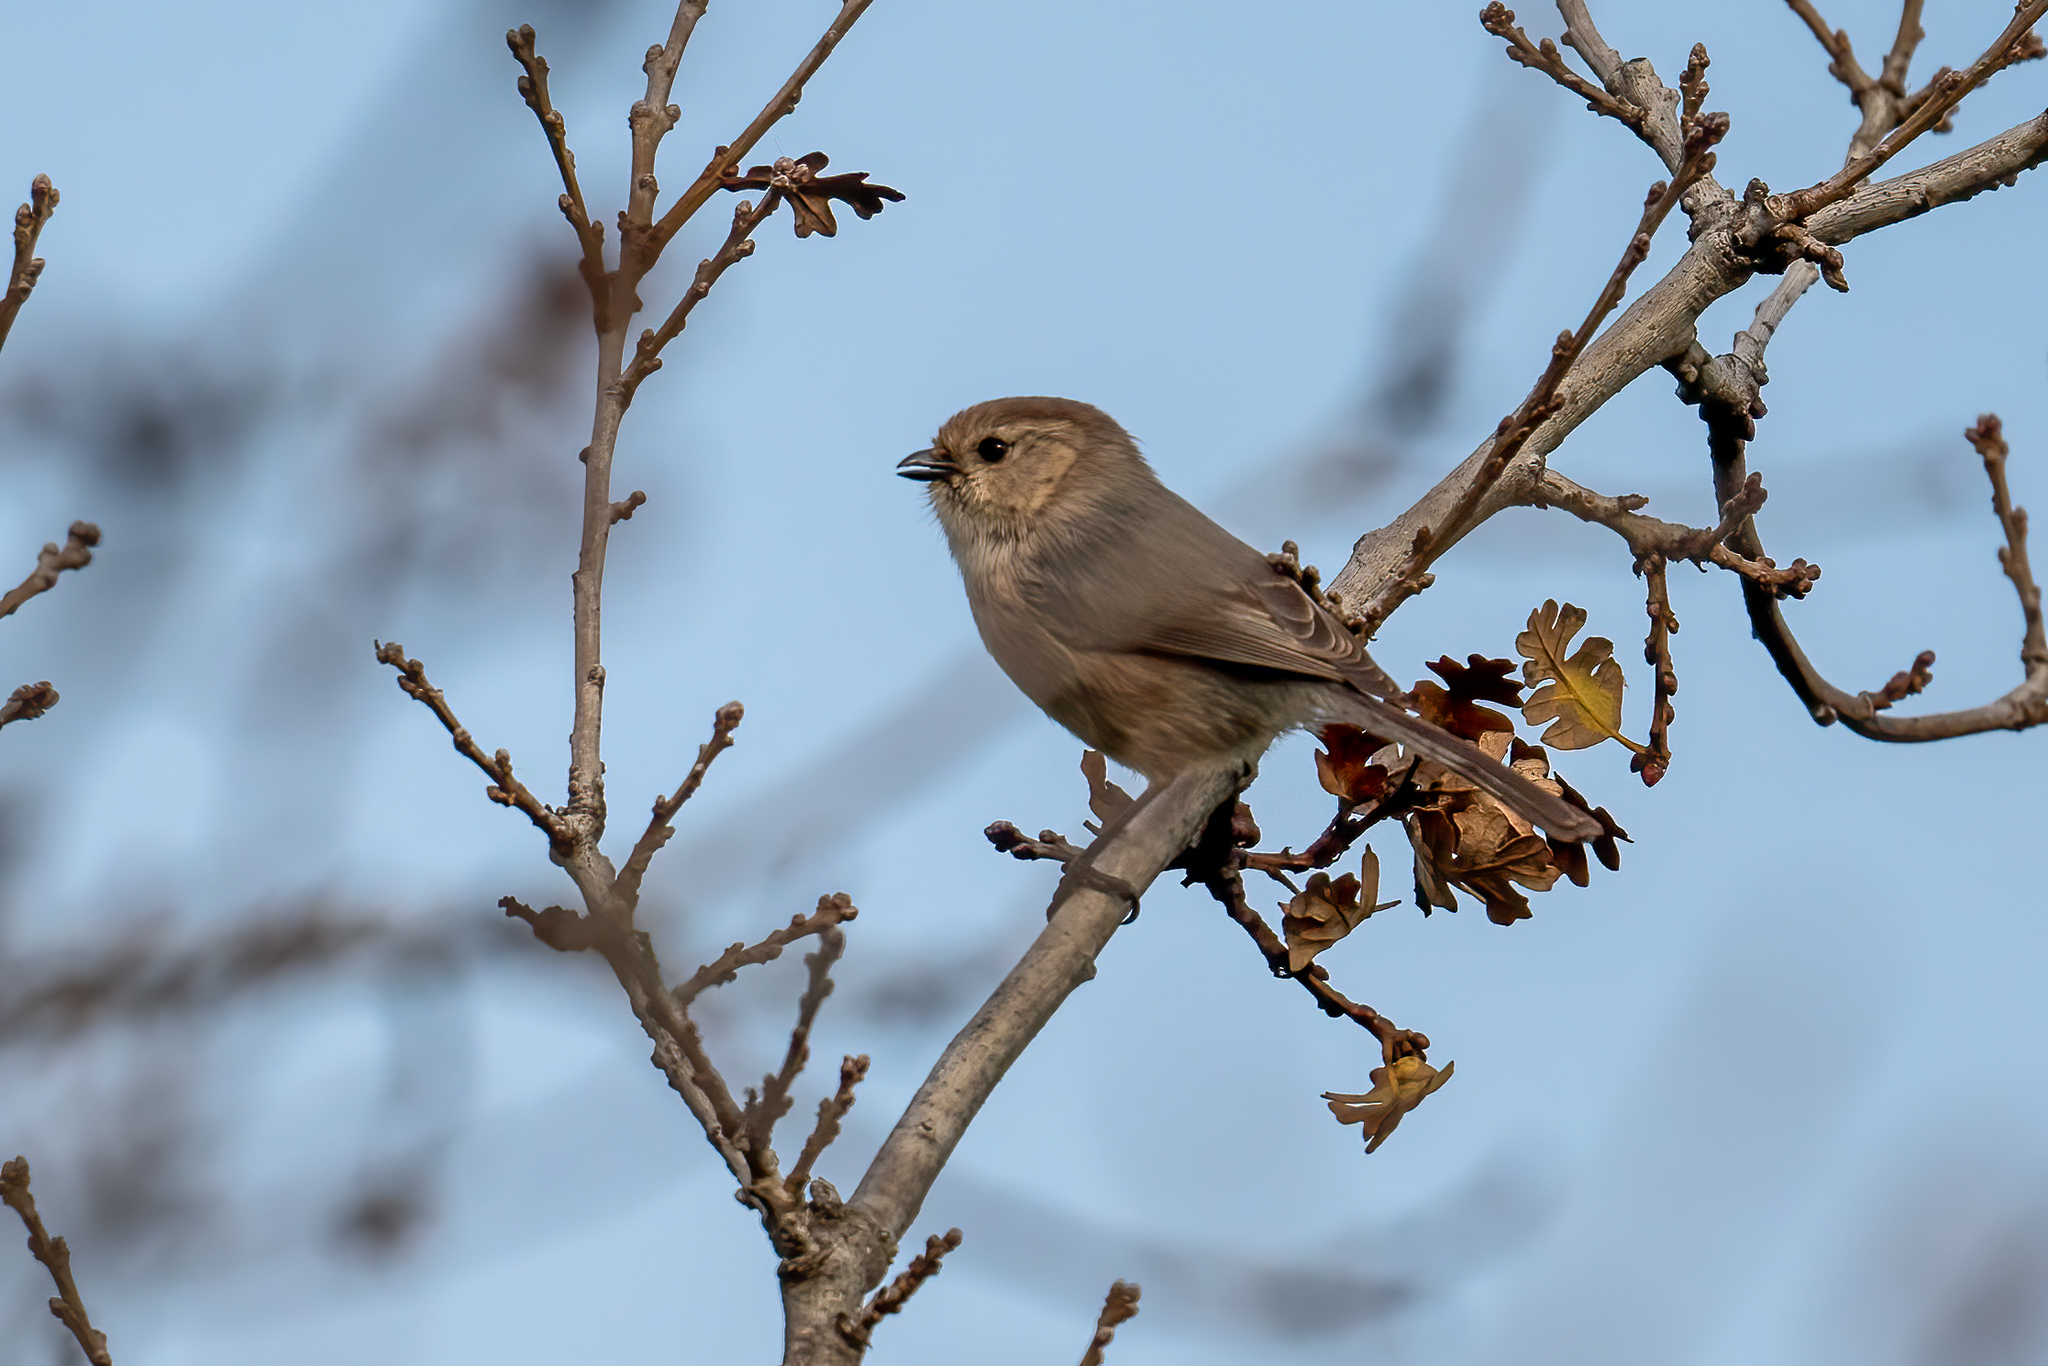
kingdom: Animalia
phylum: Chordata
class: Aves
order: Passeriformes
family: Aegithalidae
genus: Psaltriparus
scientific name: Psaltriparus minimus
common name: American bushtit
